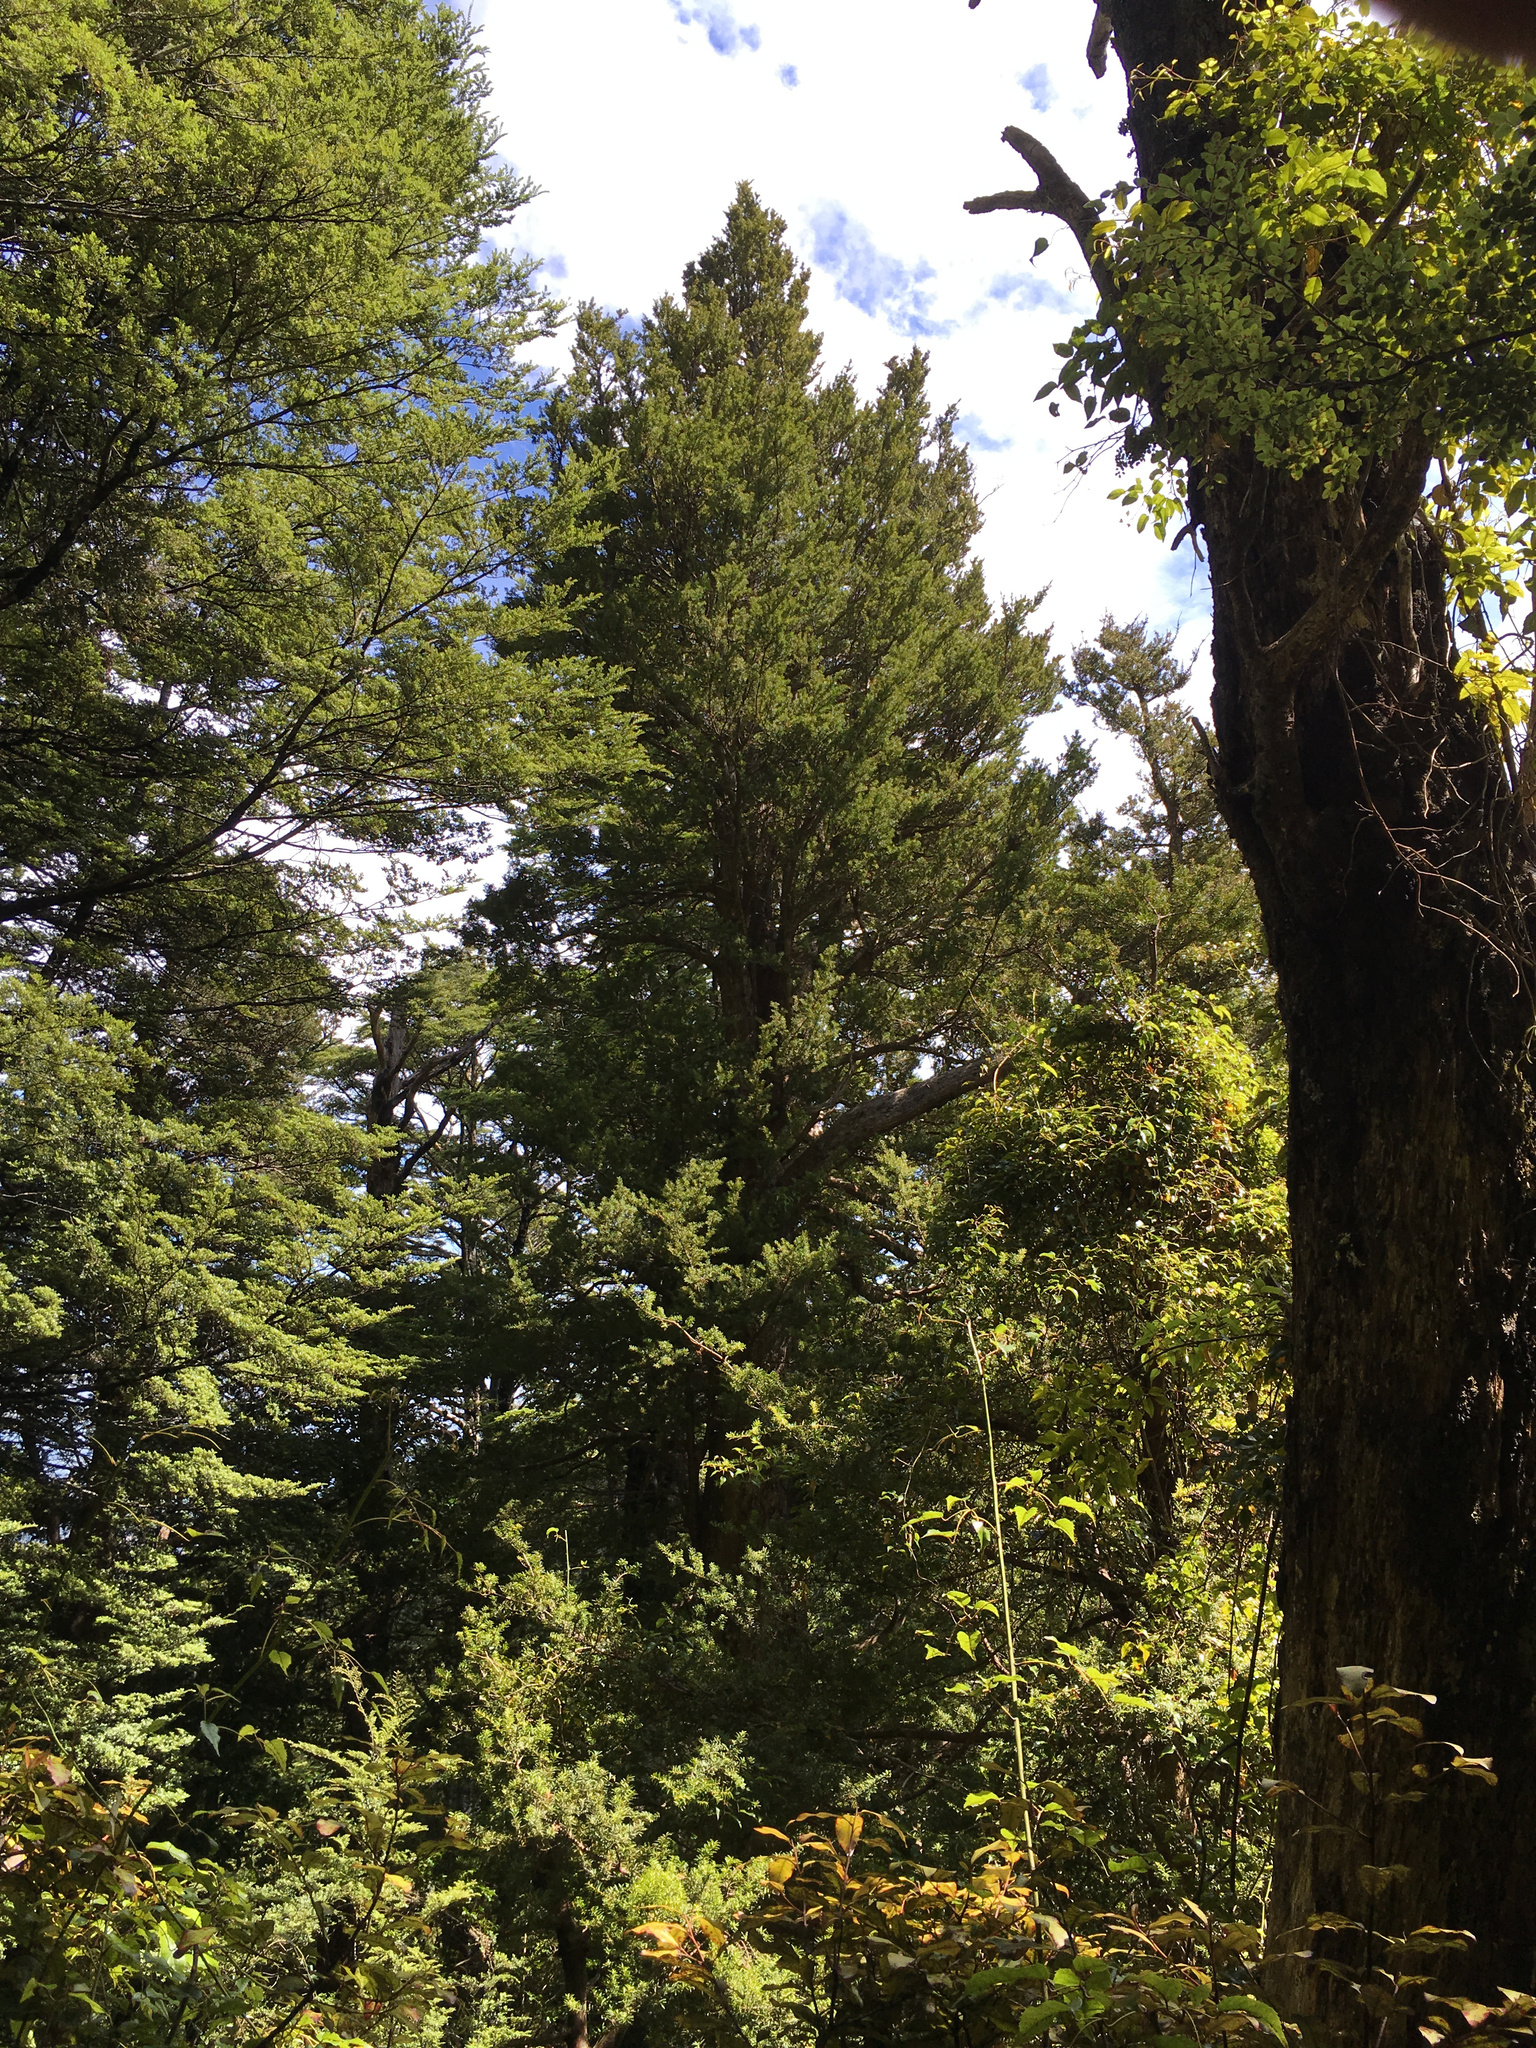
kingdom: Plantae
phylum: Tracheophyta
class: Pinopsida
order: Pinales
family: Podocarpaceae
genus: Podocarpus
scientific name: Podocarpus totara
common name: Totara
